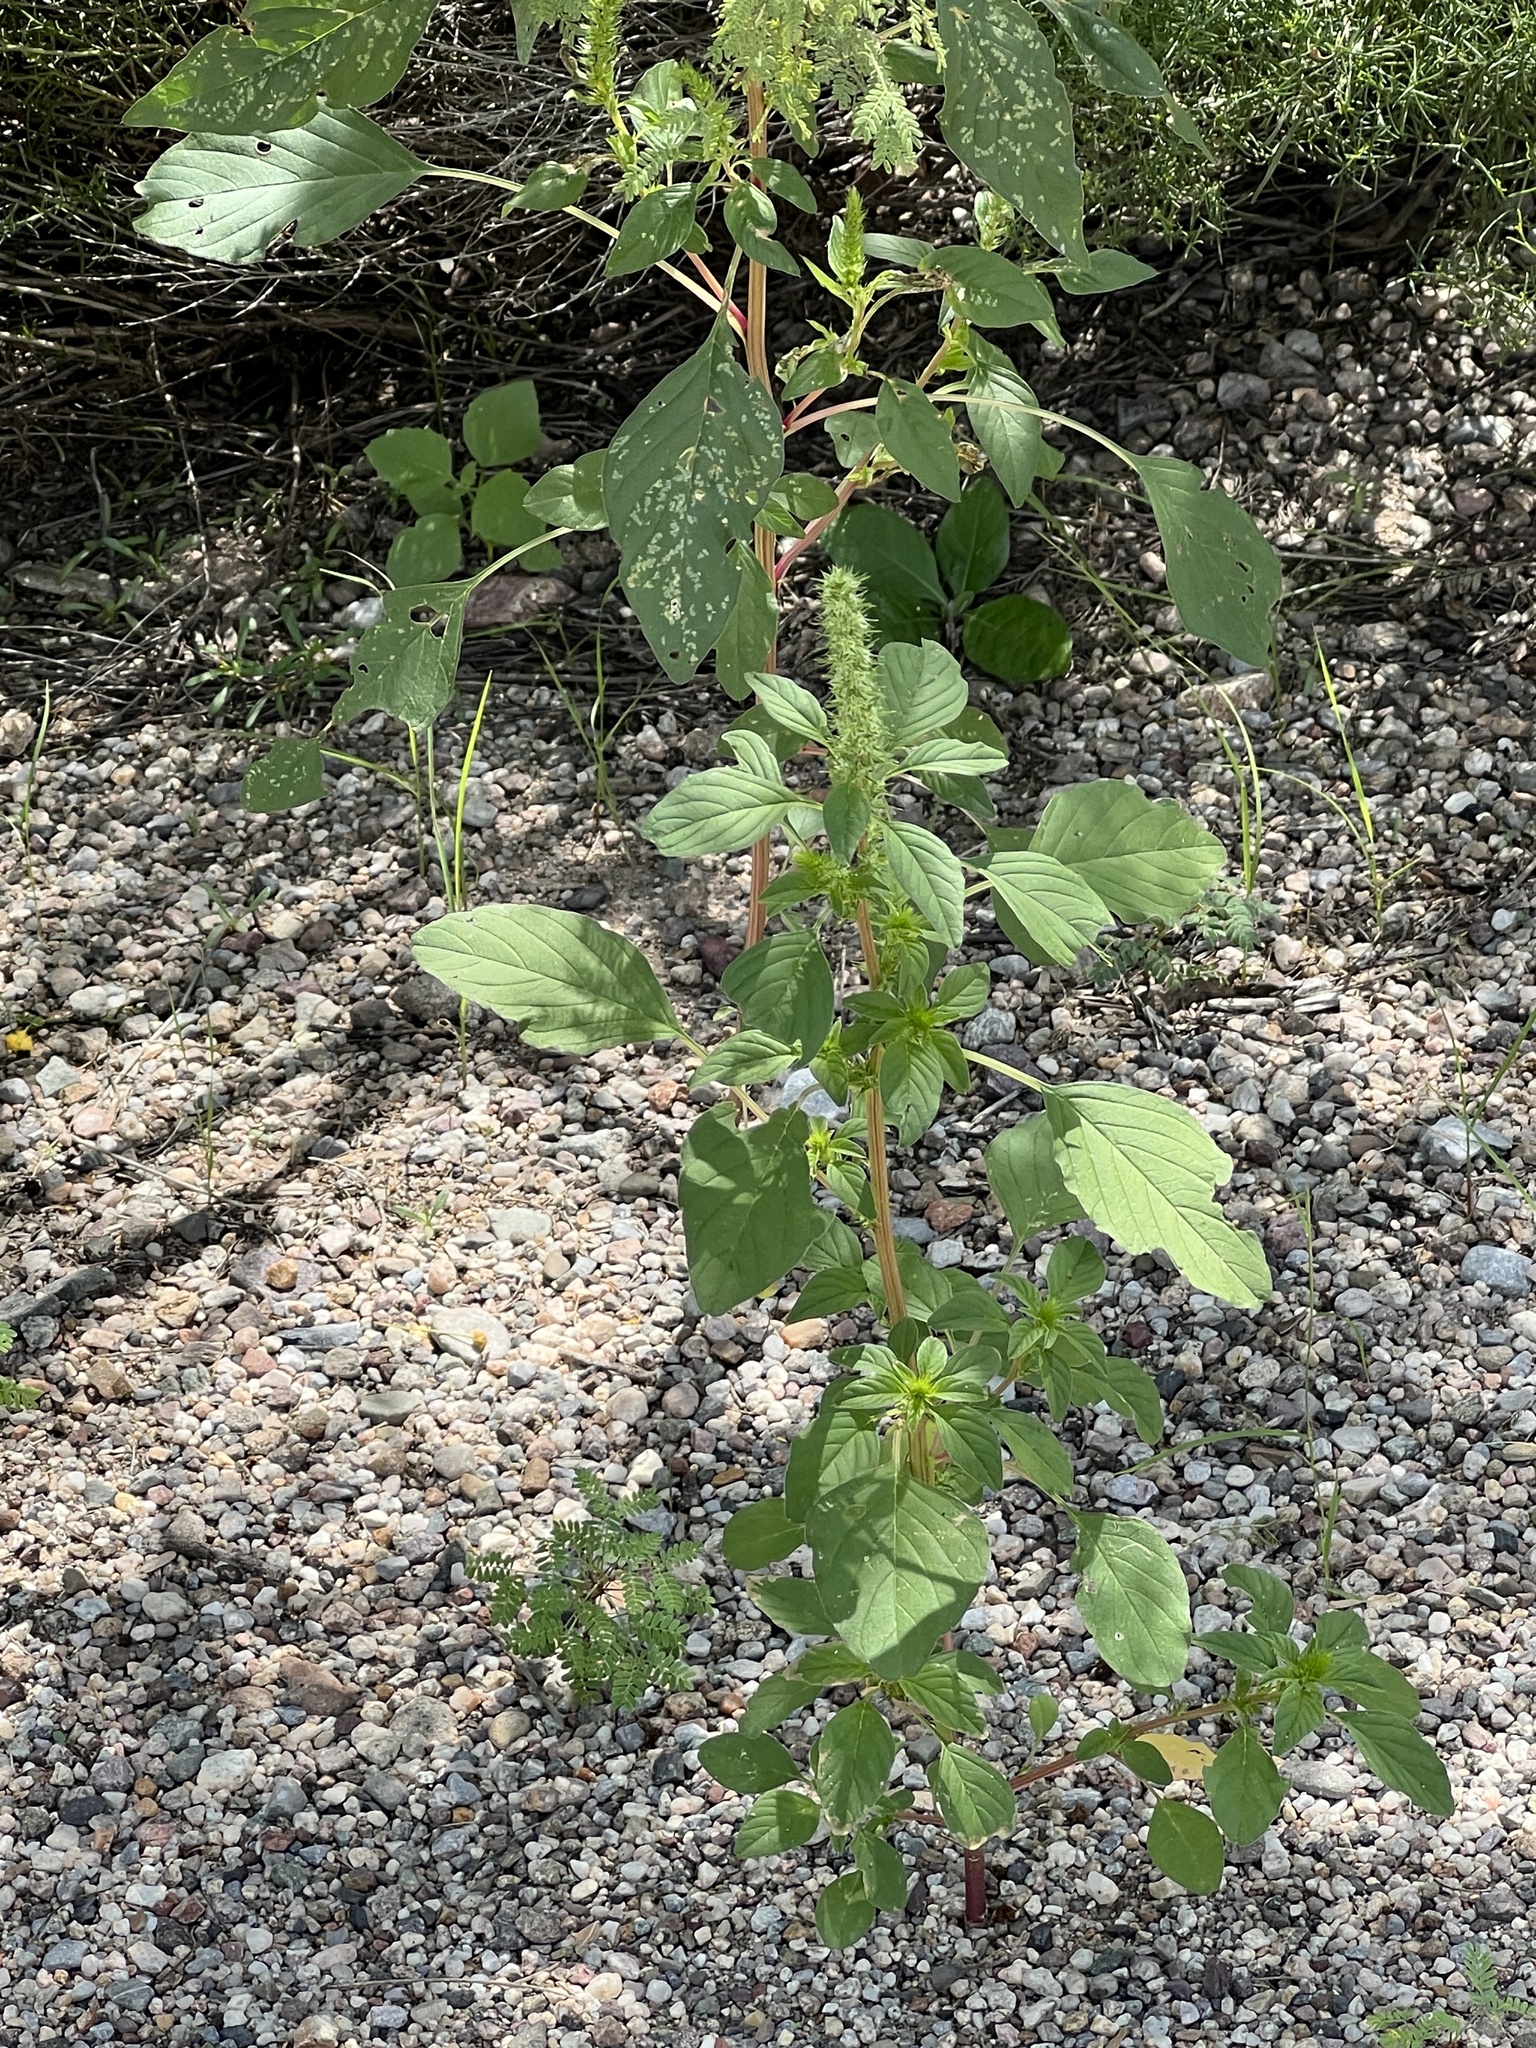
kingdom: Plantae
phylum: Tracheophyta
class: Magnoliopsida
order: Caryophyllales
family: Amaranthaceae
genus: Amaranthus
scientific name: Amaranthus palmeri
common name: Dioecious amaranth
